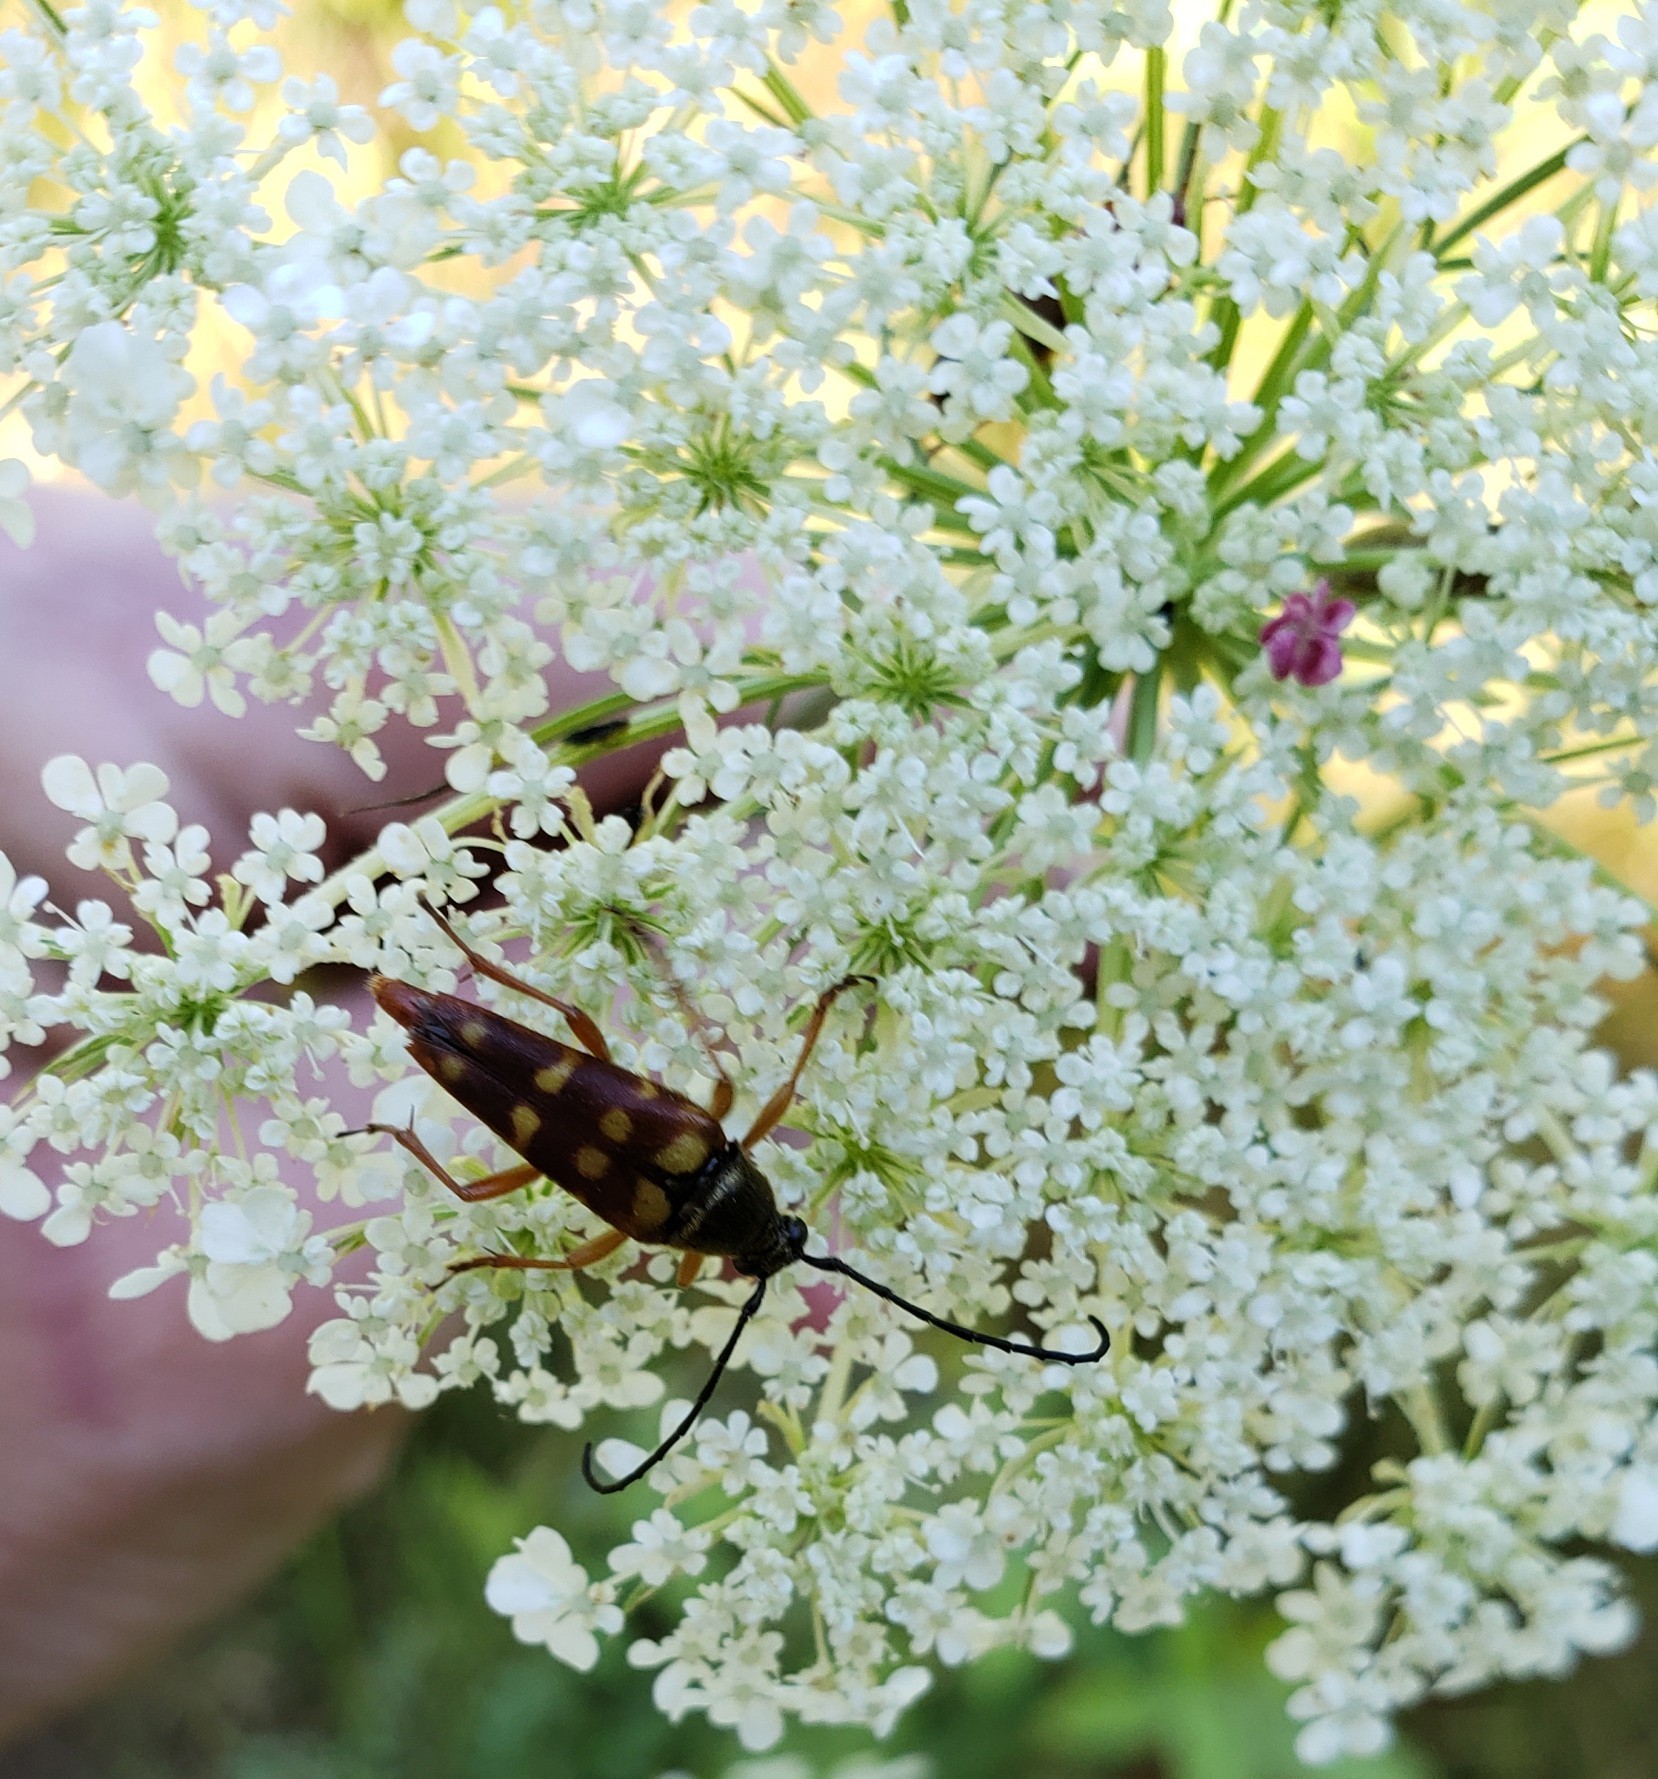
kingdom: Animalia
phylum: Arthropoda
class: Insecta
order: Coleoptera
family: Cerambycidae
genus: Typocerus
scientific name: Typocerus velutinus
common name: Banded longhorn beetle
